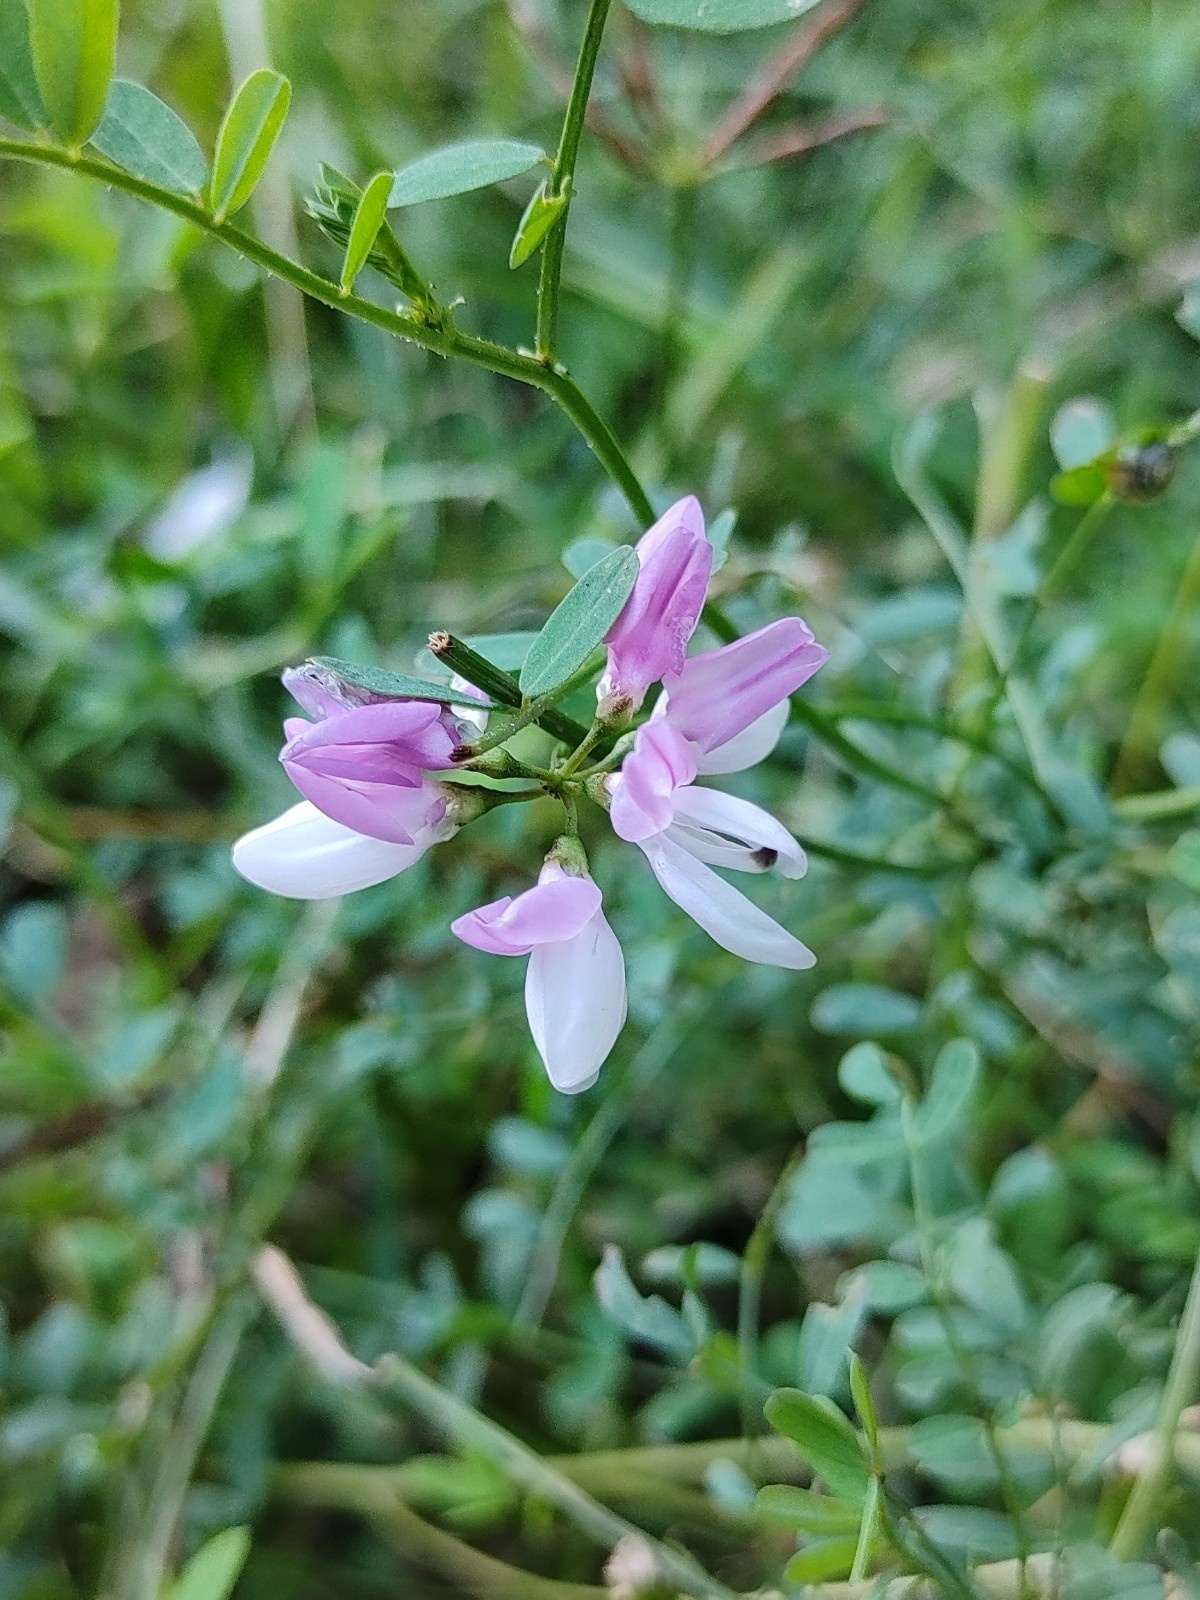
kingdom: Plantae
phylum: Tracheophyta
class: Magnoliopsida
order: Fabales
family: Fabaceae
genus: Coronilla
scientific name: Coronilla varia
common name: Crownvetch
